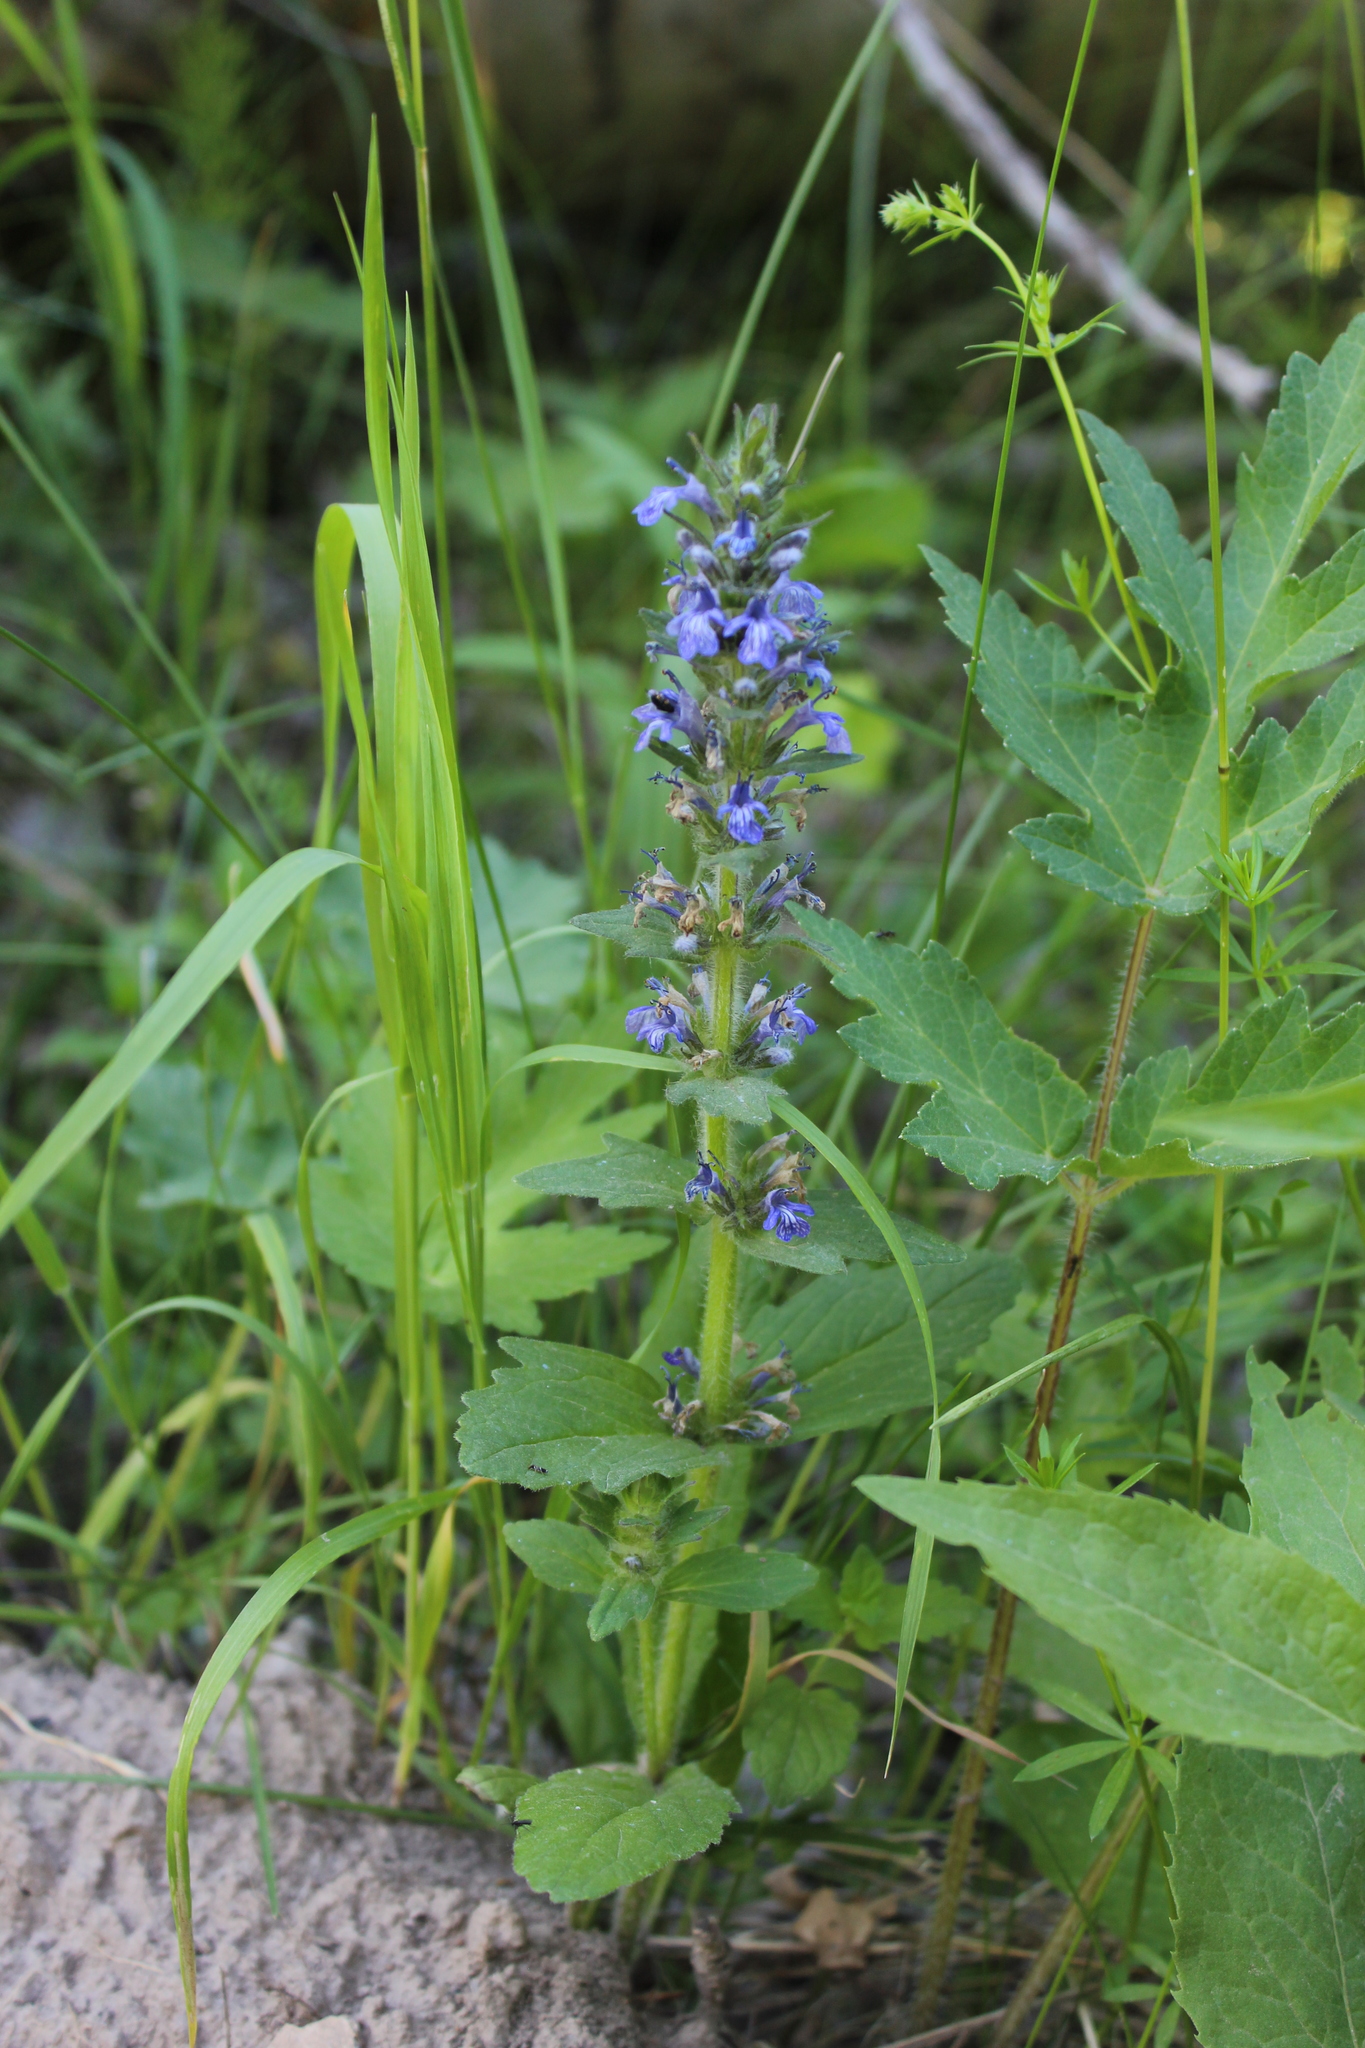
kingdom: Plantae
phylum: Tracheophyta
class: Magnoliopsida
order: Lamiales
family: Lamiaceae
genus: Ajuga
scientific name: Ajuga genevensis
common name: Blue bugle
